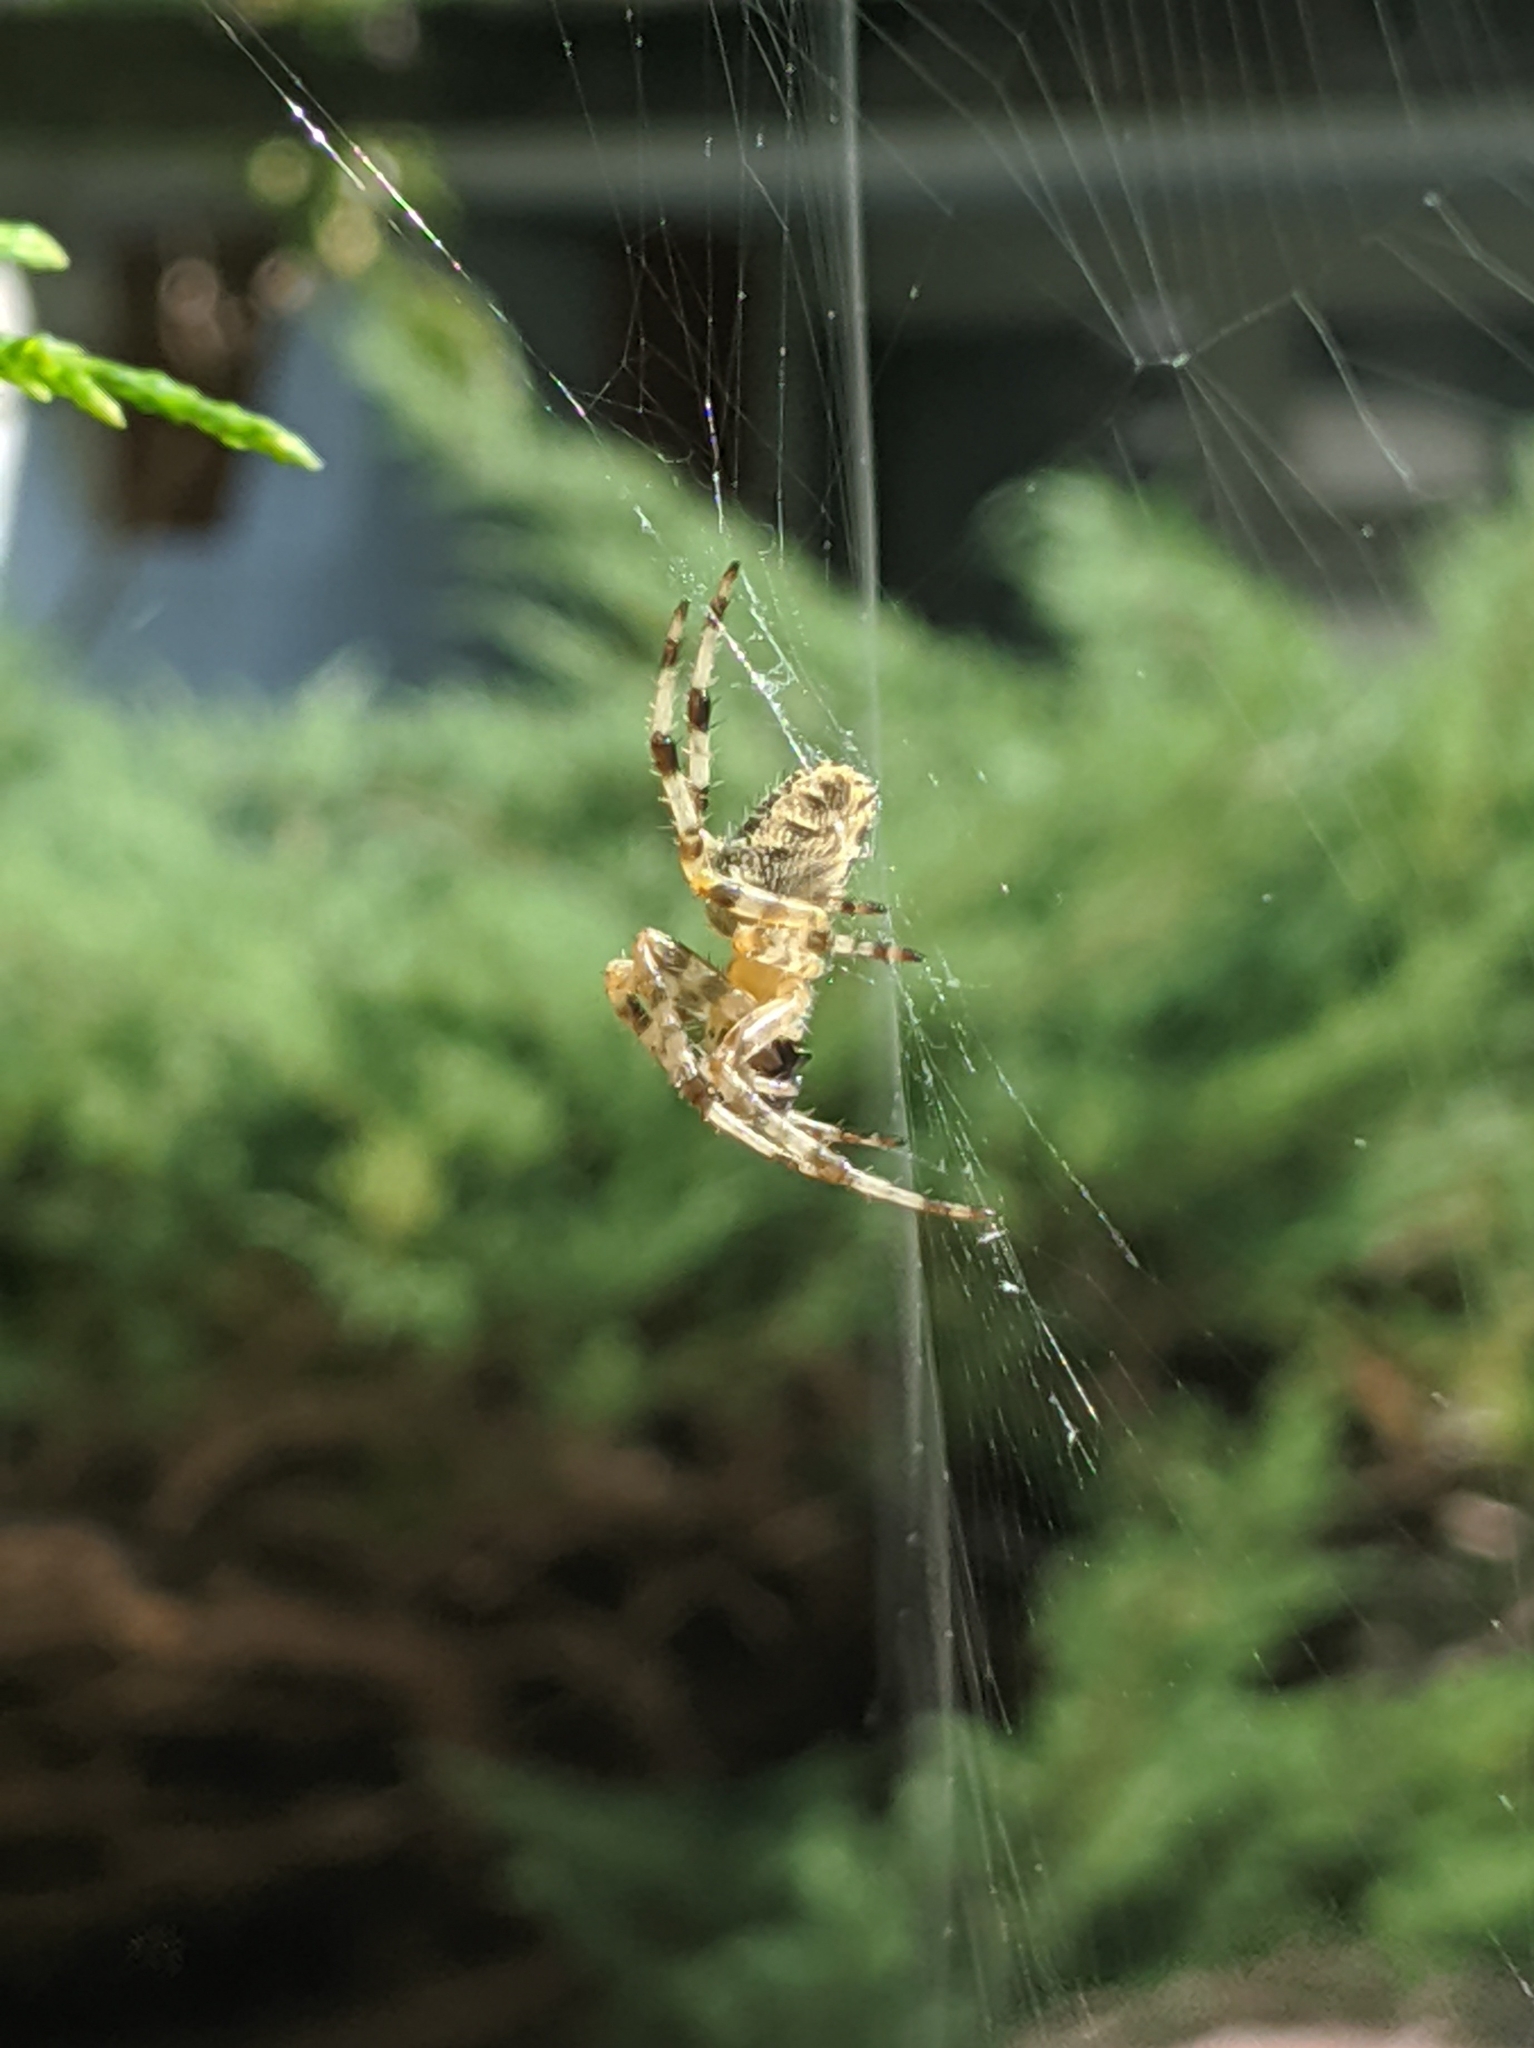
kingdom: Animalia
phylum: Arthropoda
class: Arachnida
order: Araneae
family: Araneidae
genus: Araneus
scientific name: Araneus diadematus
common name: Cross orbweaver
